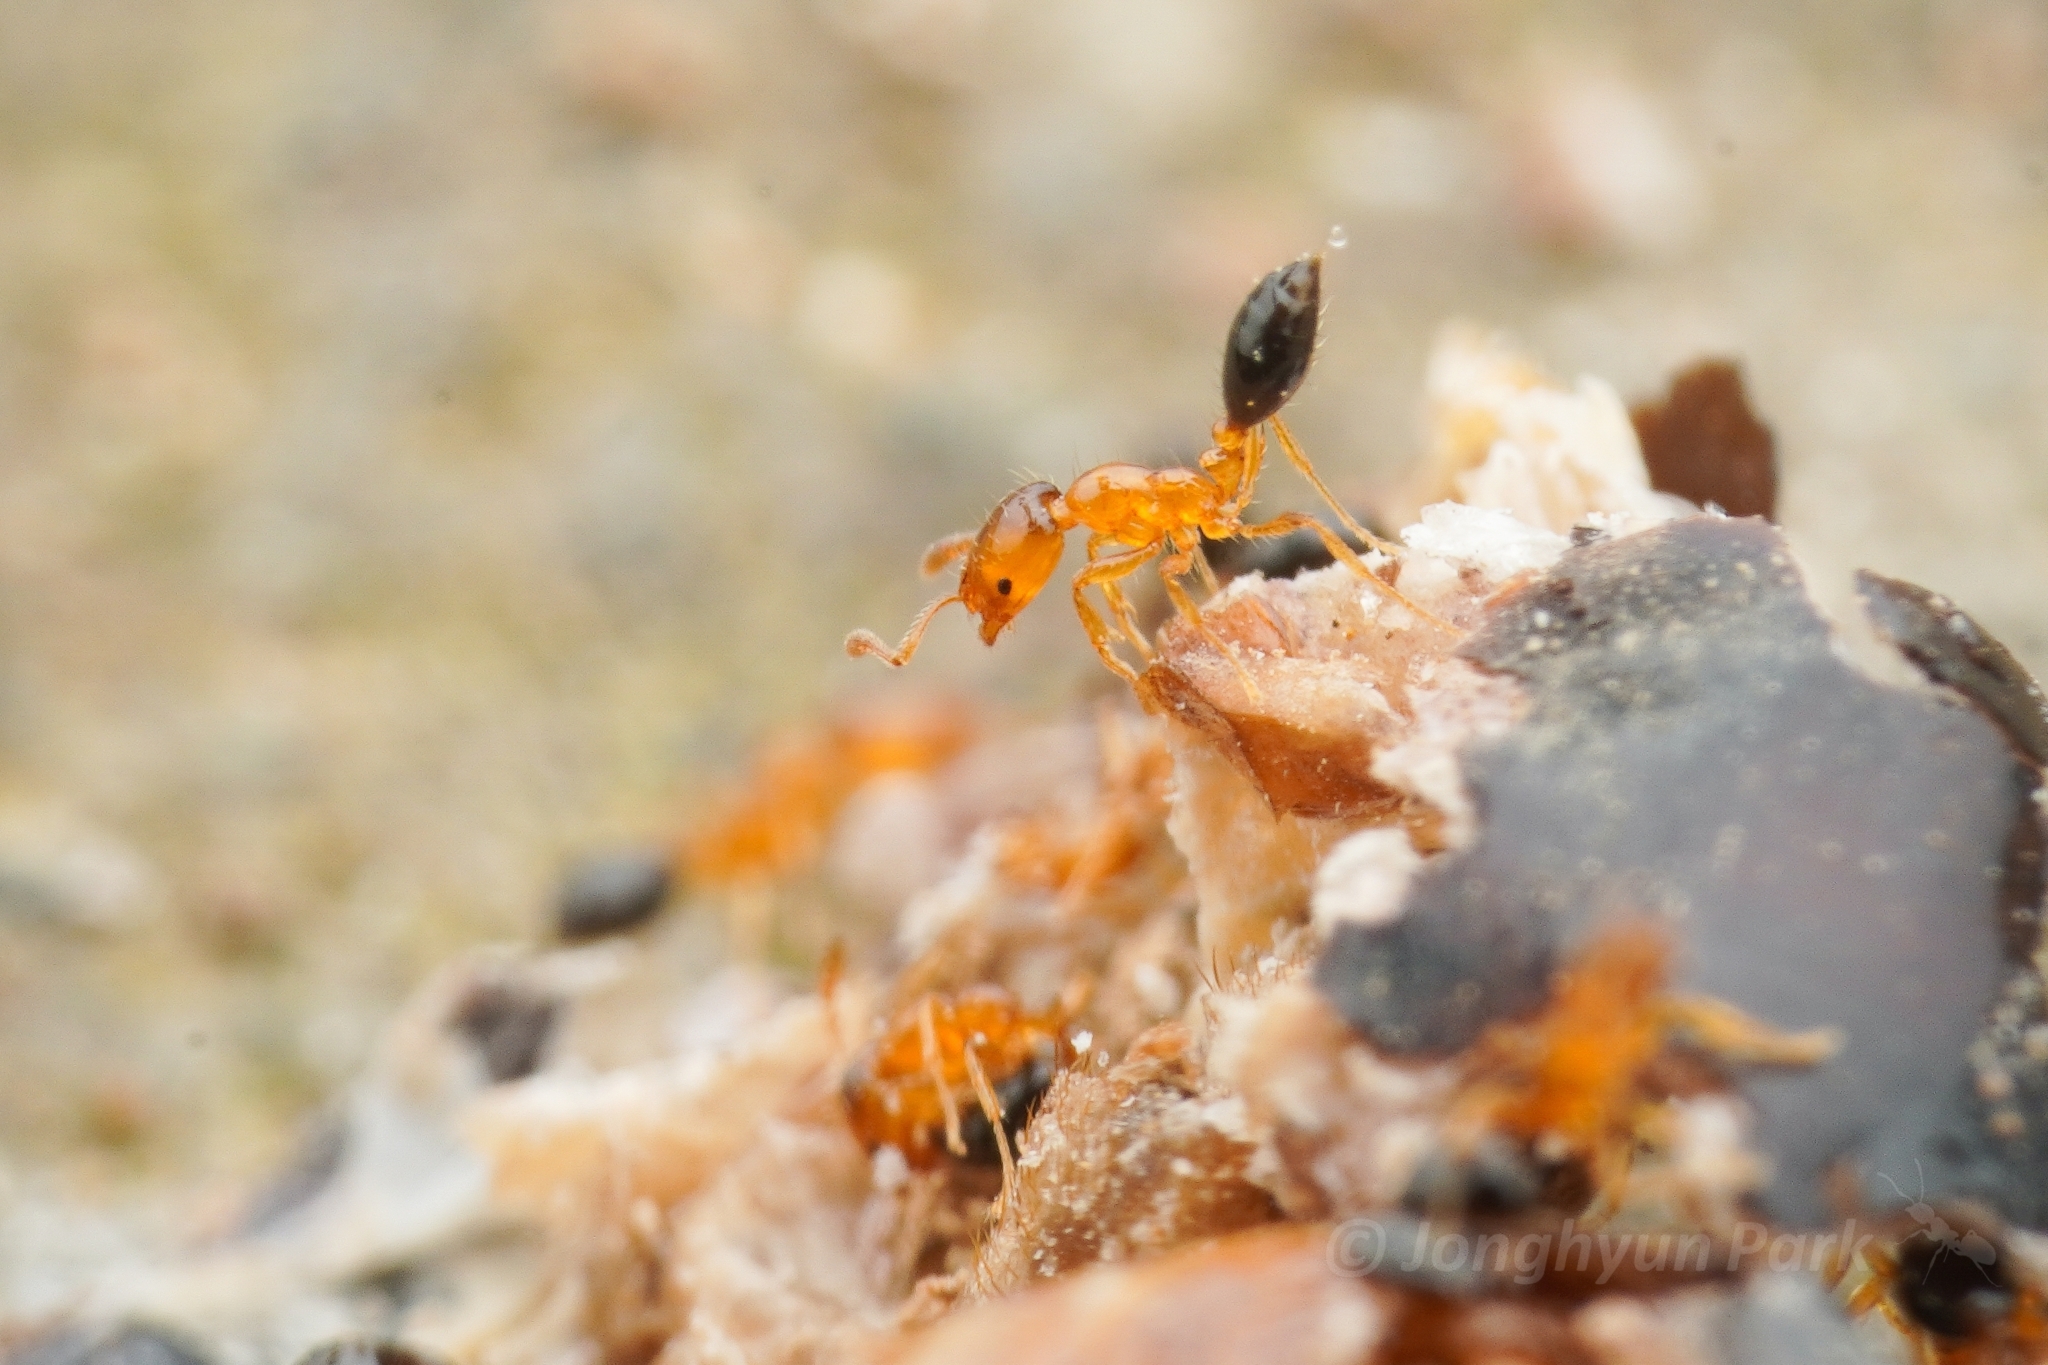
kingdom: Animalia
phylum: Arthropoda
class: Insecta
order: Hymenoptera
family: Formicidae
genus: Monomorium
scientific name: Monomorium intrudens
